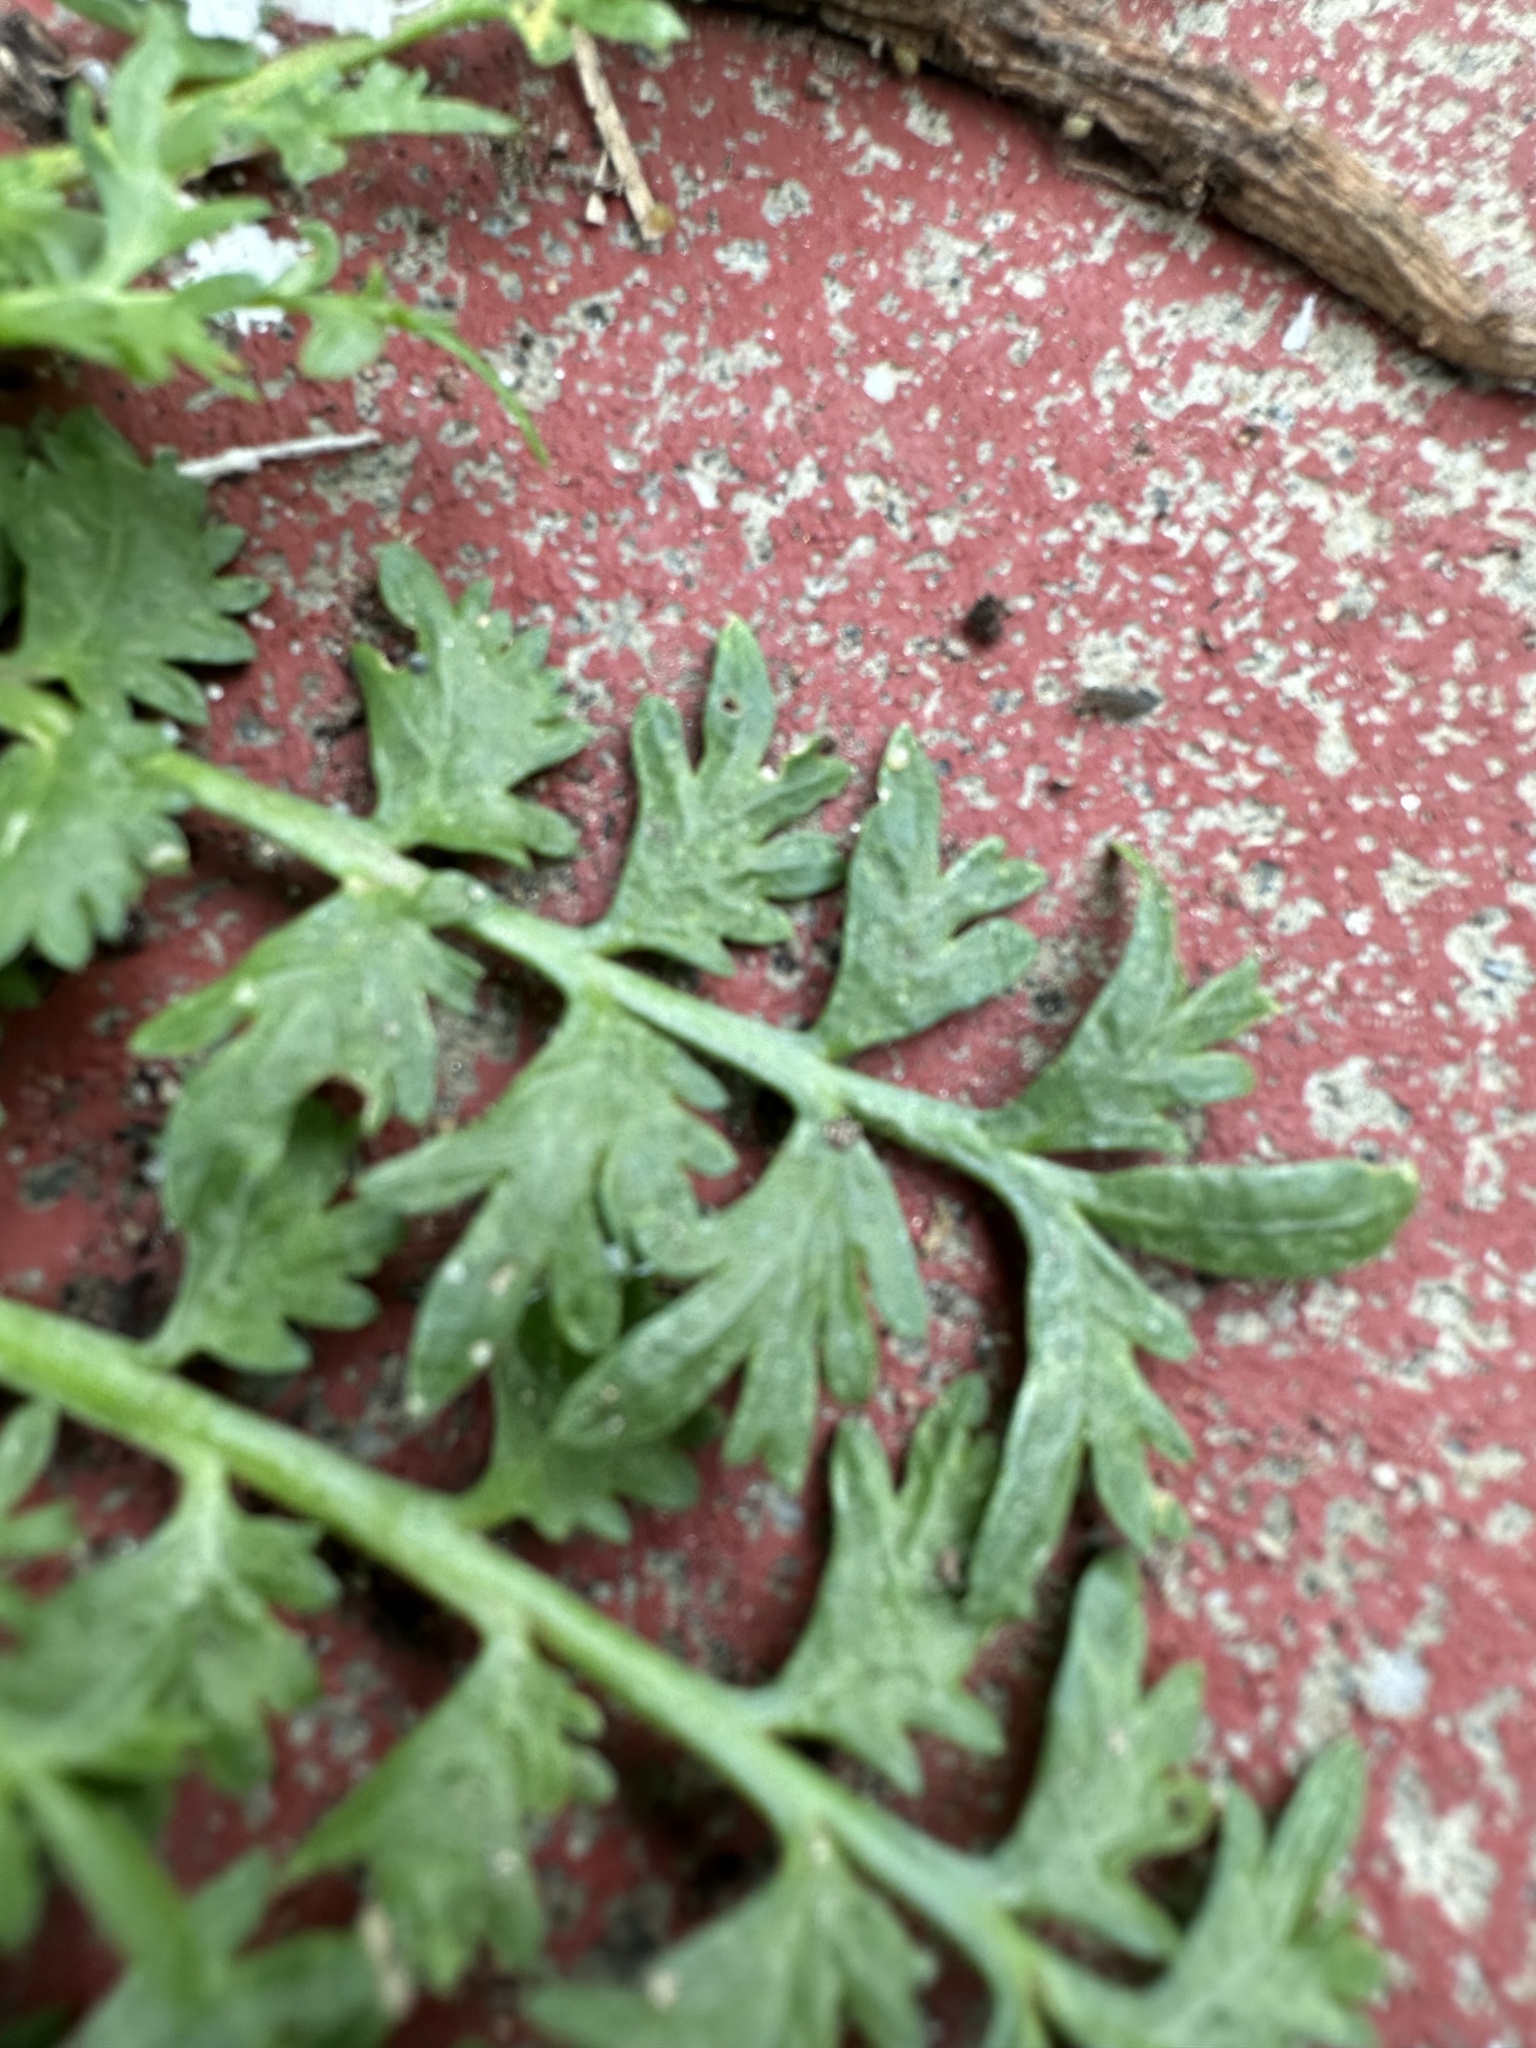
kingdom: Plantae
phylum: Tracheophyta
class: Magnoliopsida
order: Brassicales
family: Brassicaceae
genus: Lepidium
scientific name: Lepidium didymum
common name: Lesser swinecress
